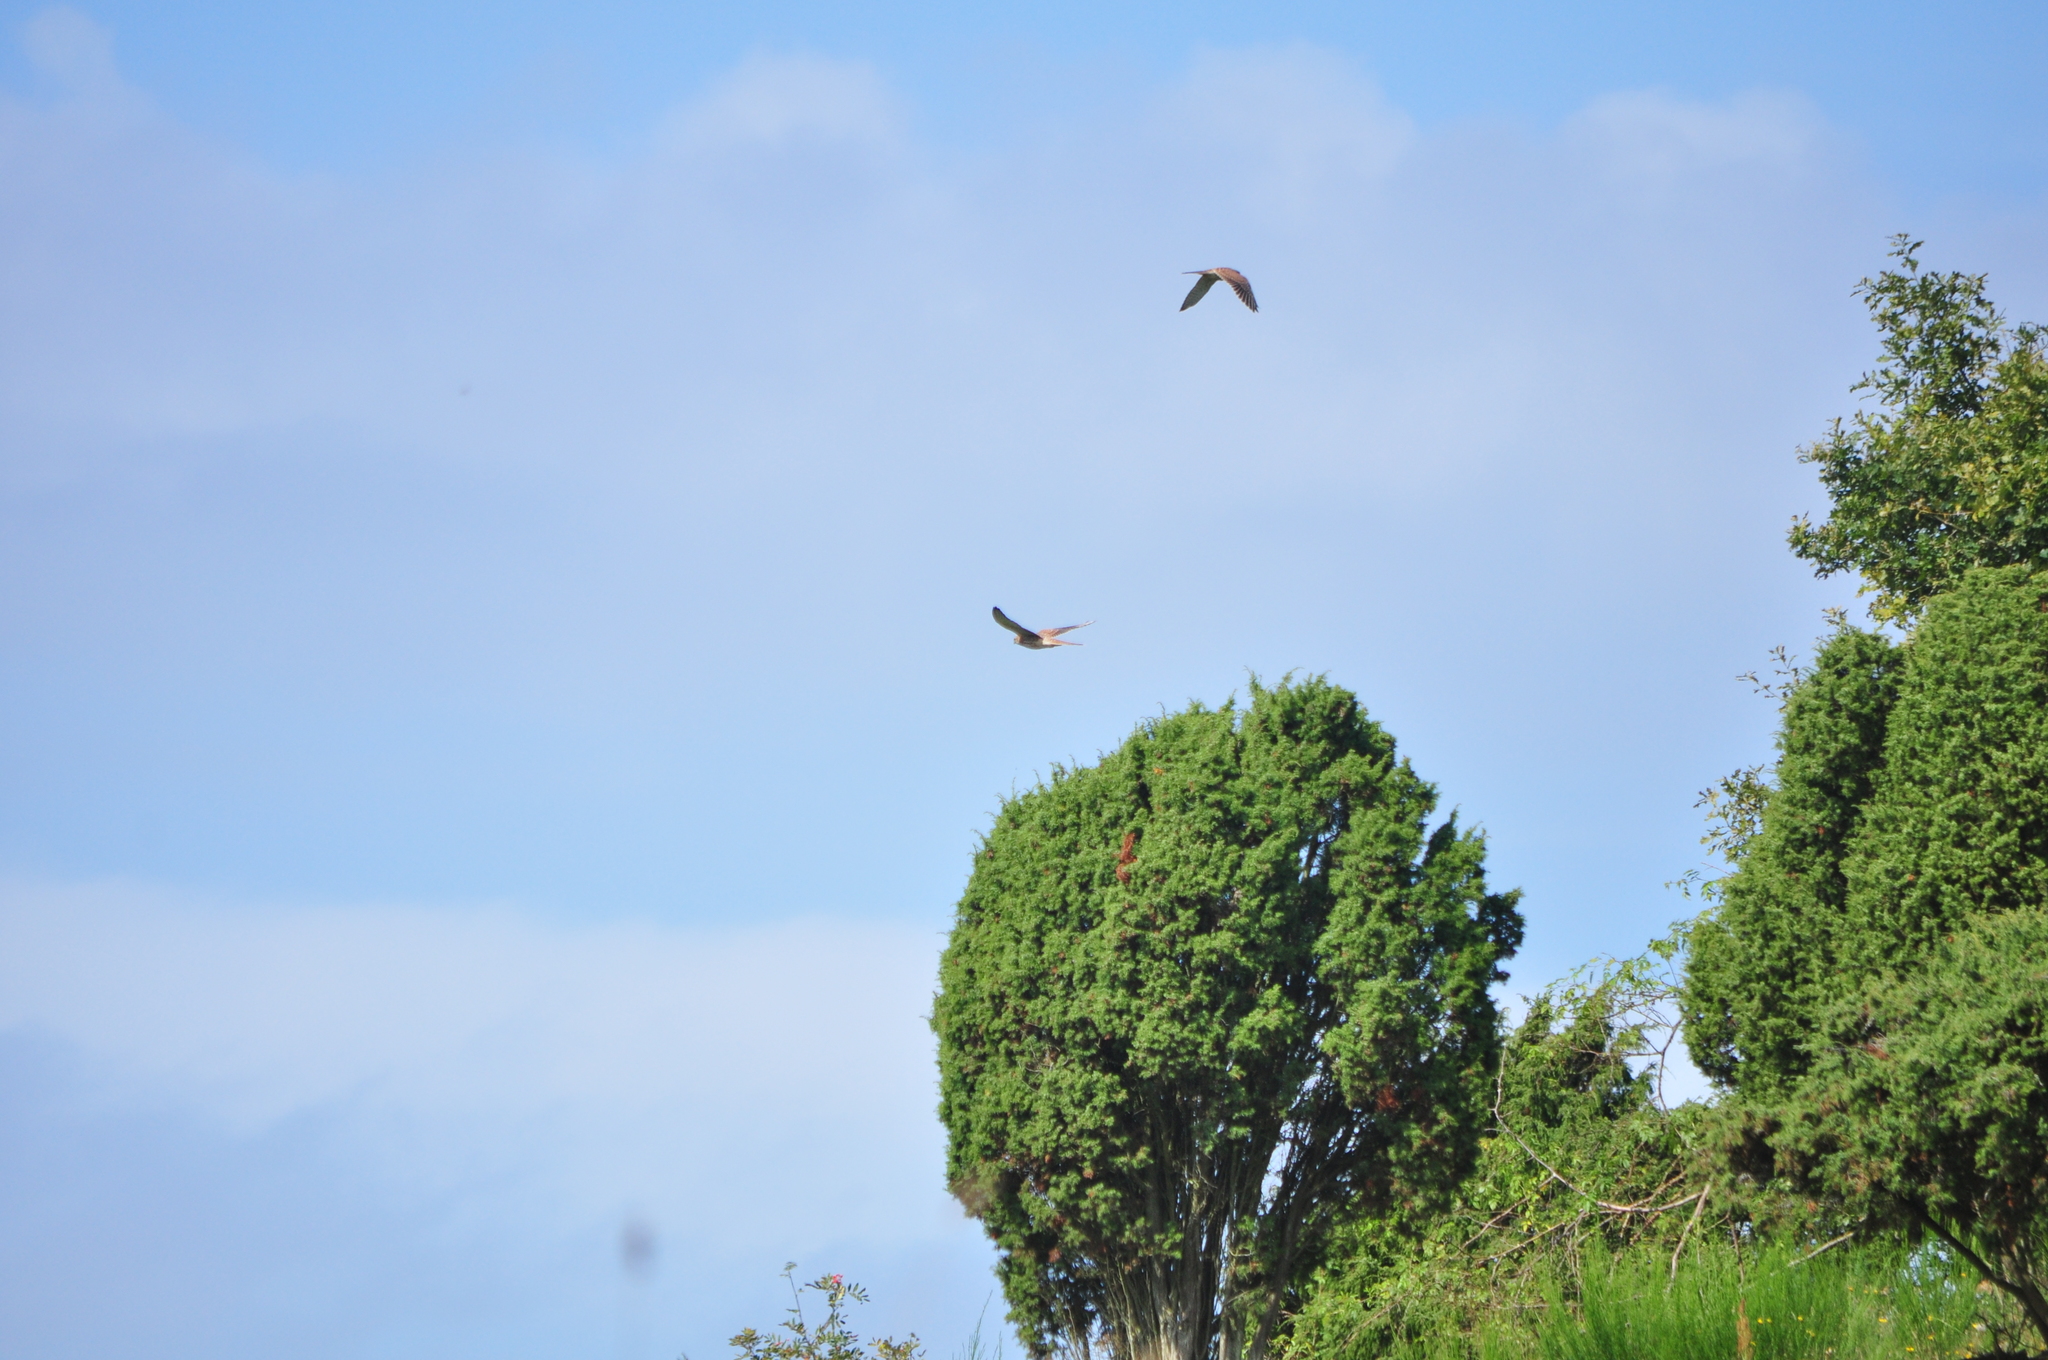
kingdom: Animalia
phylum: Chordata
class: Aves
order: Falconiformes
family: Falconidae
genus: Falco
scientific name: Falco tinnunculus
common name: Common kestrel
